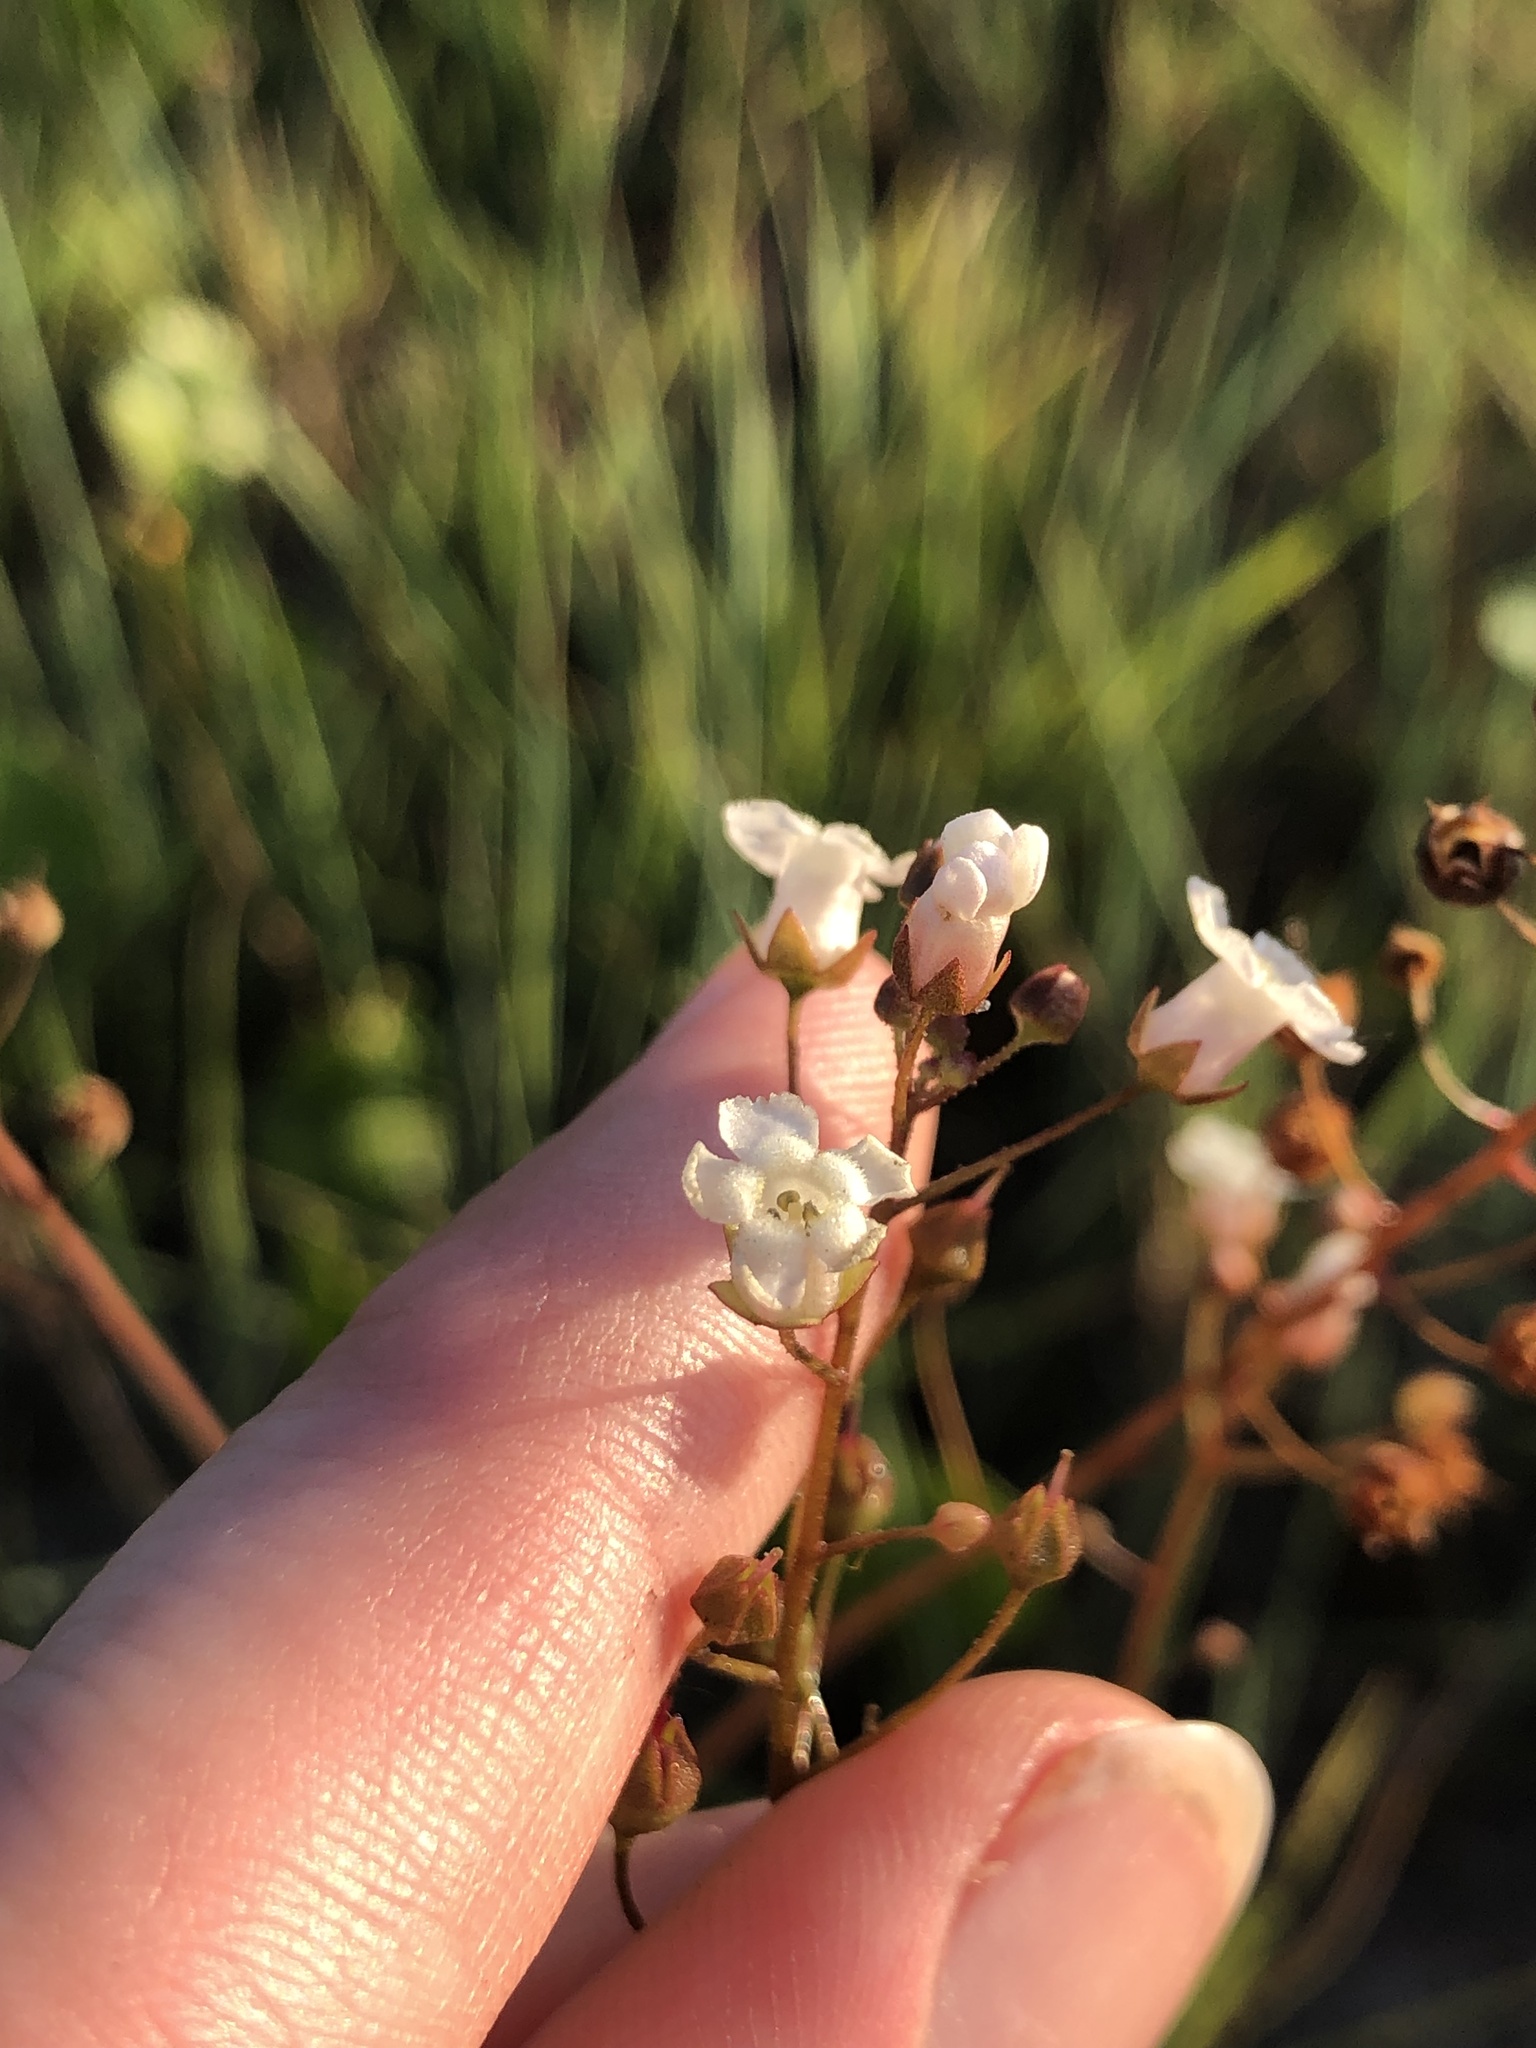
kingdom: Plantae
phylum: Tracheophyta
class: Magnoliopsida
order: Ericales
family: Primulaceae
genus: Samolus
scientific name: Samolus ebracteatus
